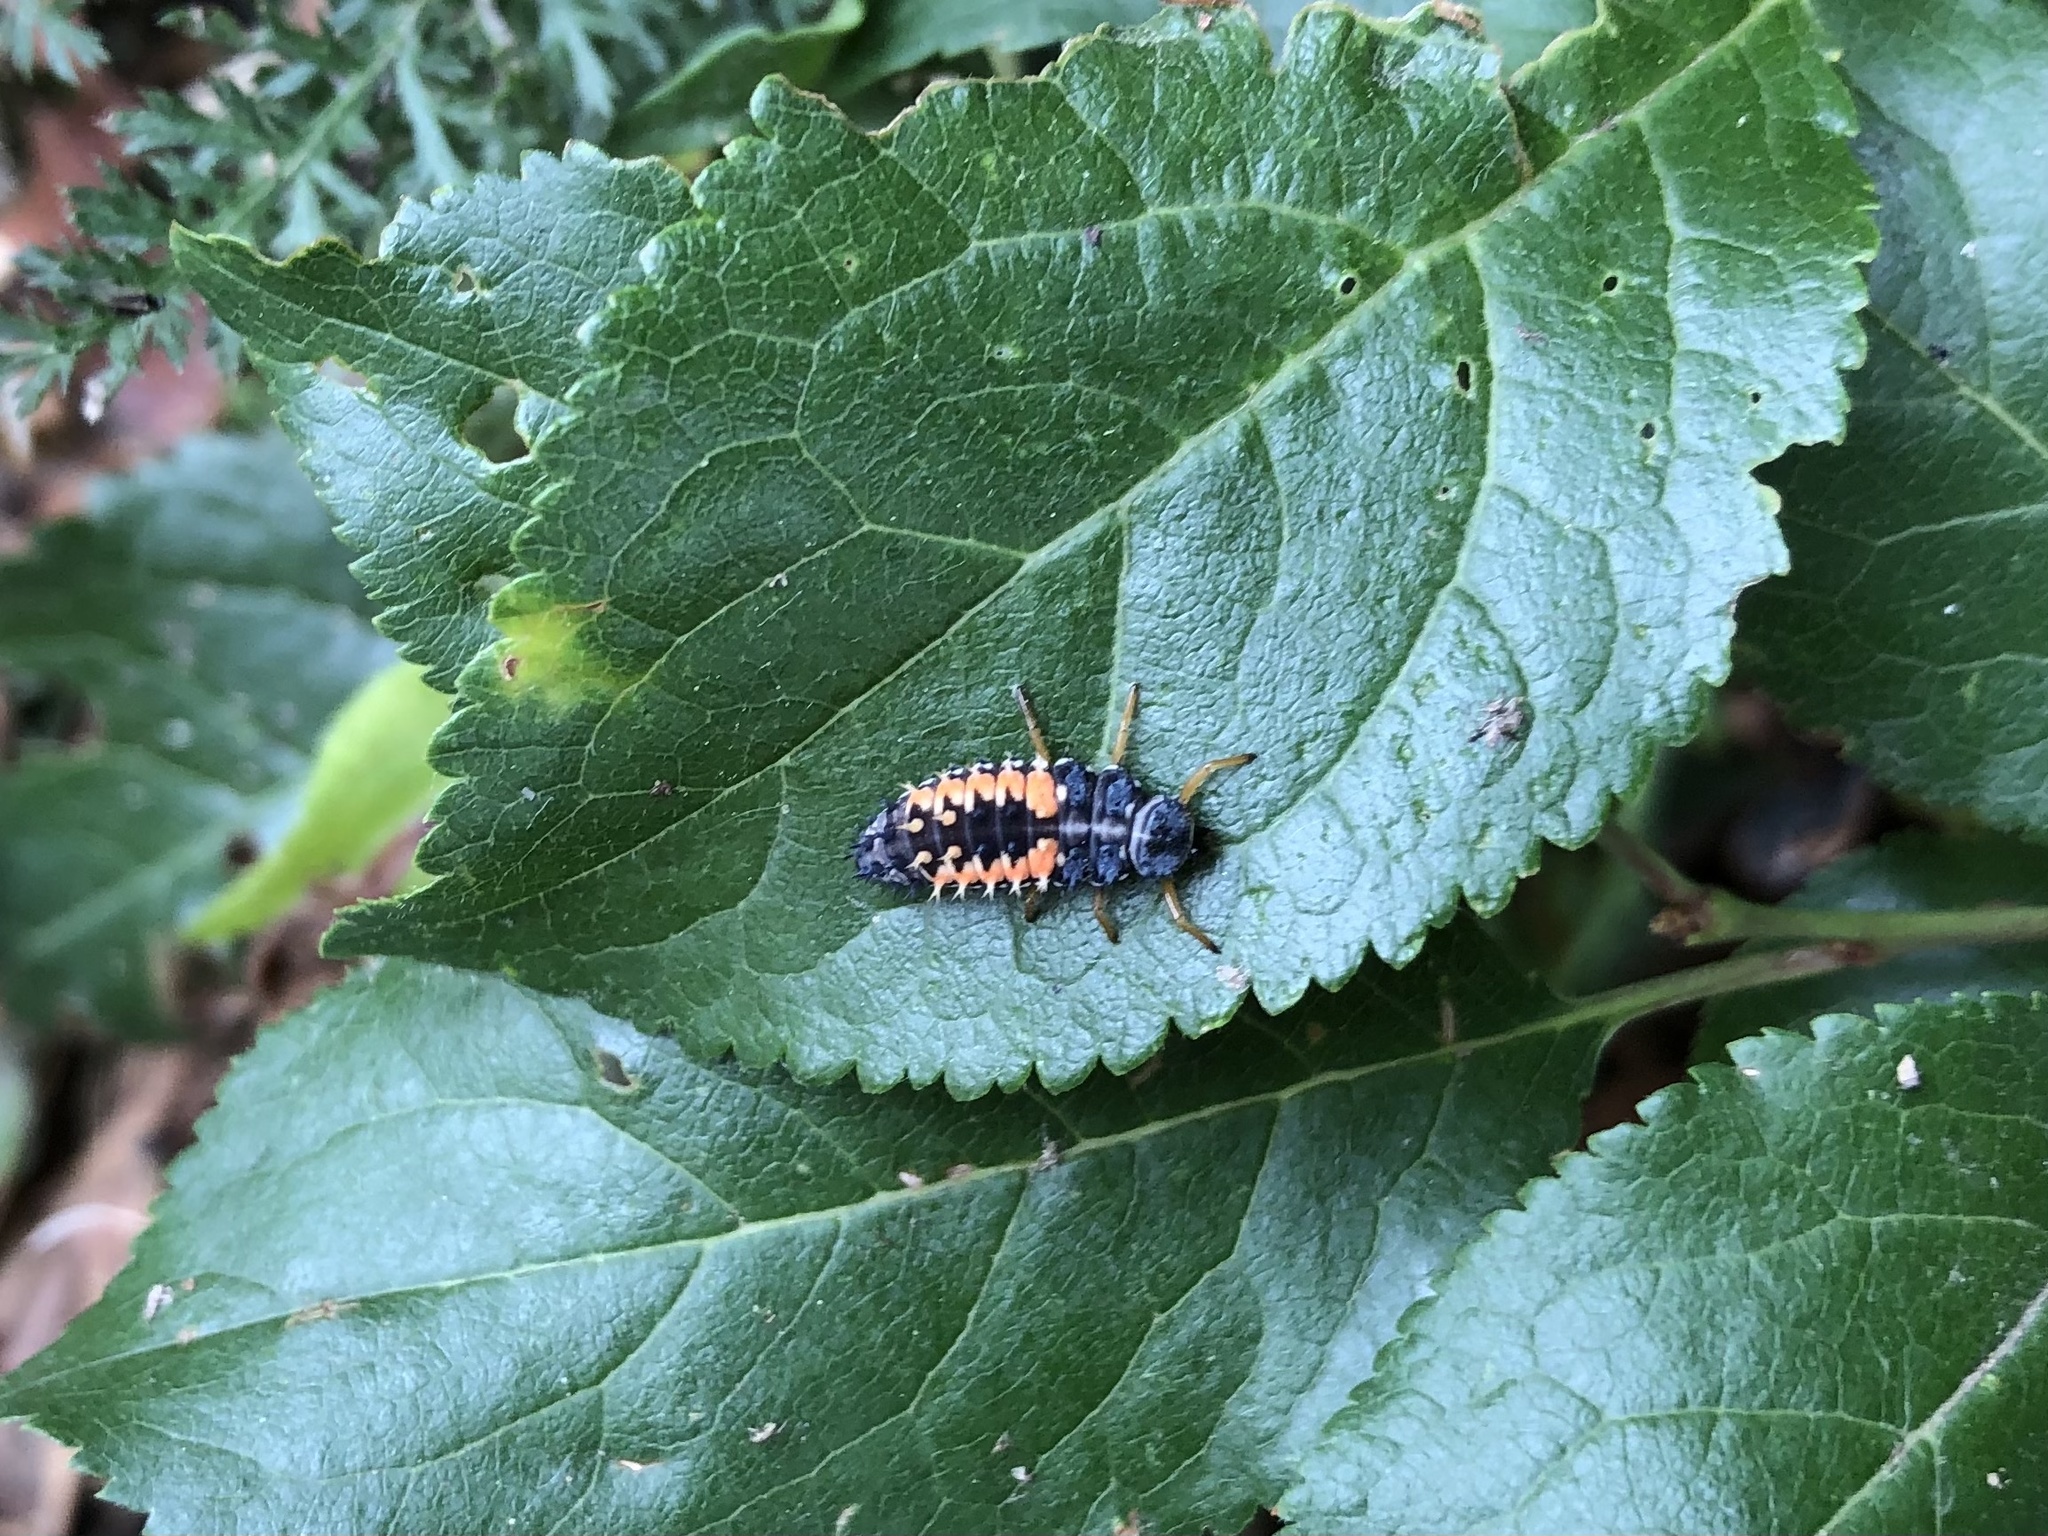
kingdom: Animalia
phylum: Arthropoda
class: Insecta
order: Coleoptera
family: Coccinellidae
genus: Harmonia
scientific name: Harmonia axyridis
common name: Harlequin ladybird
